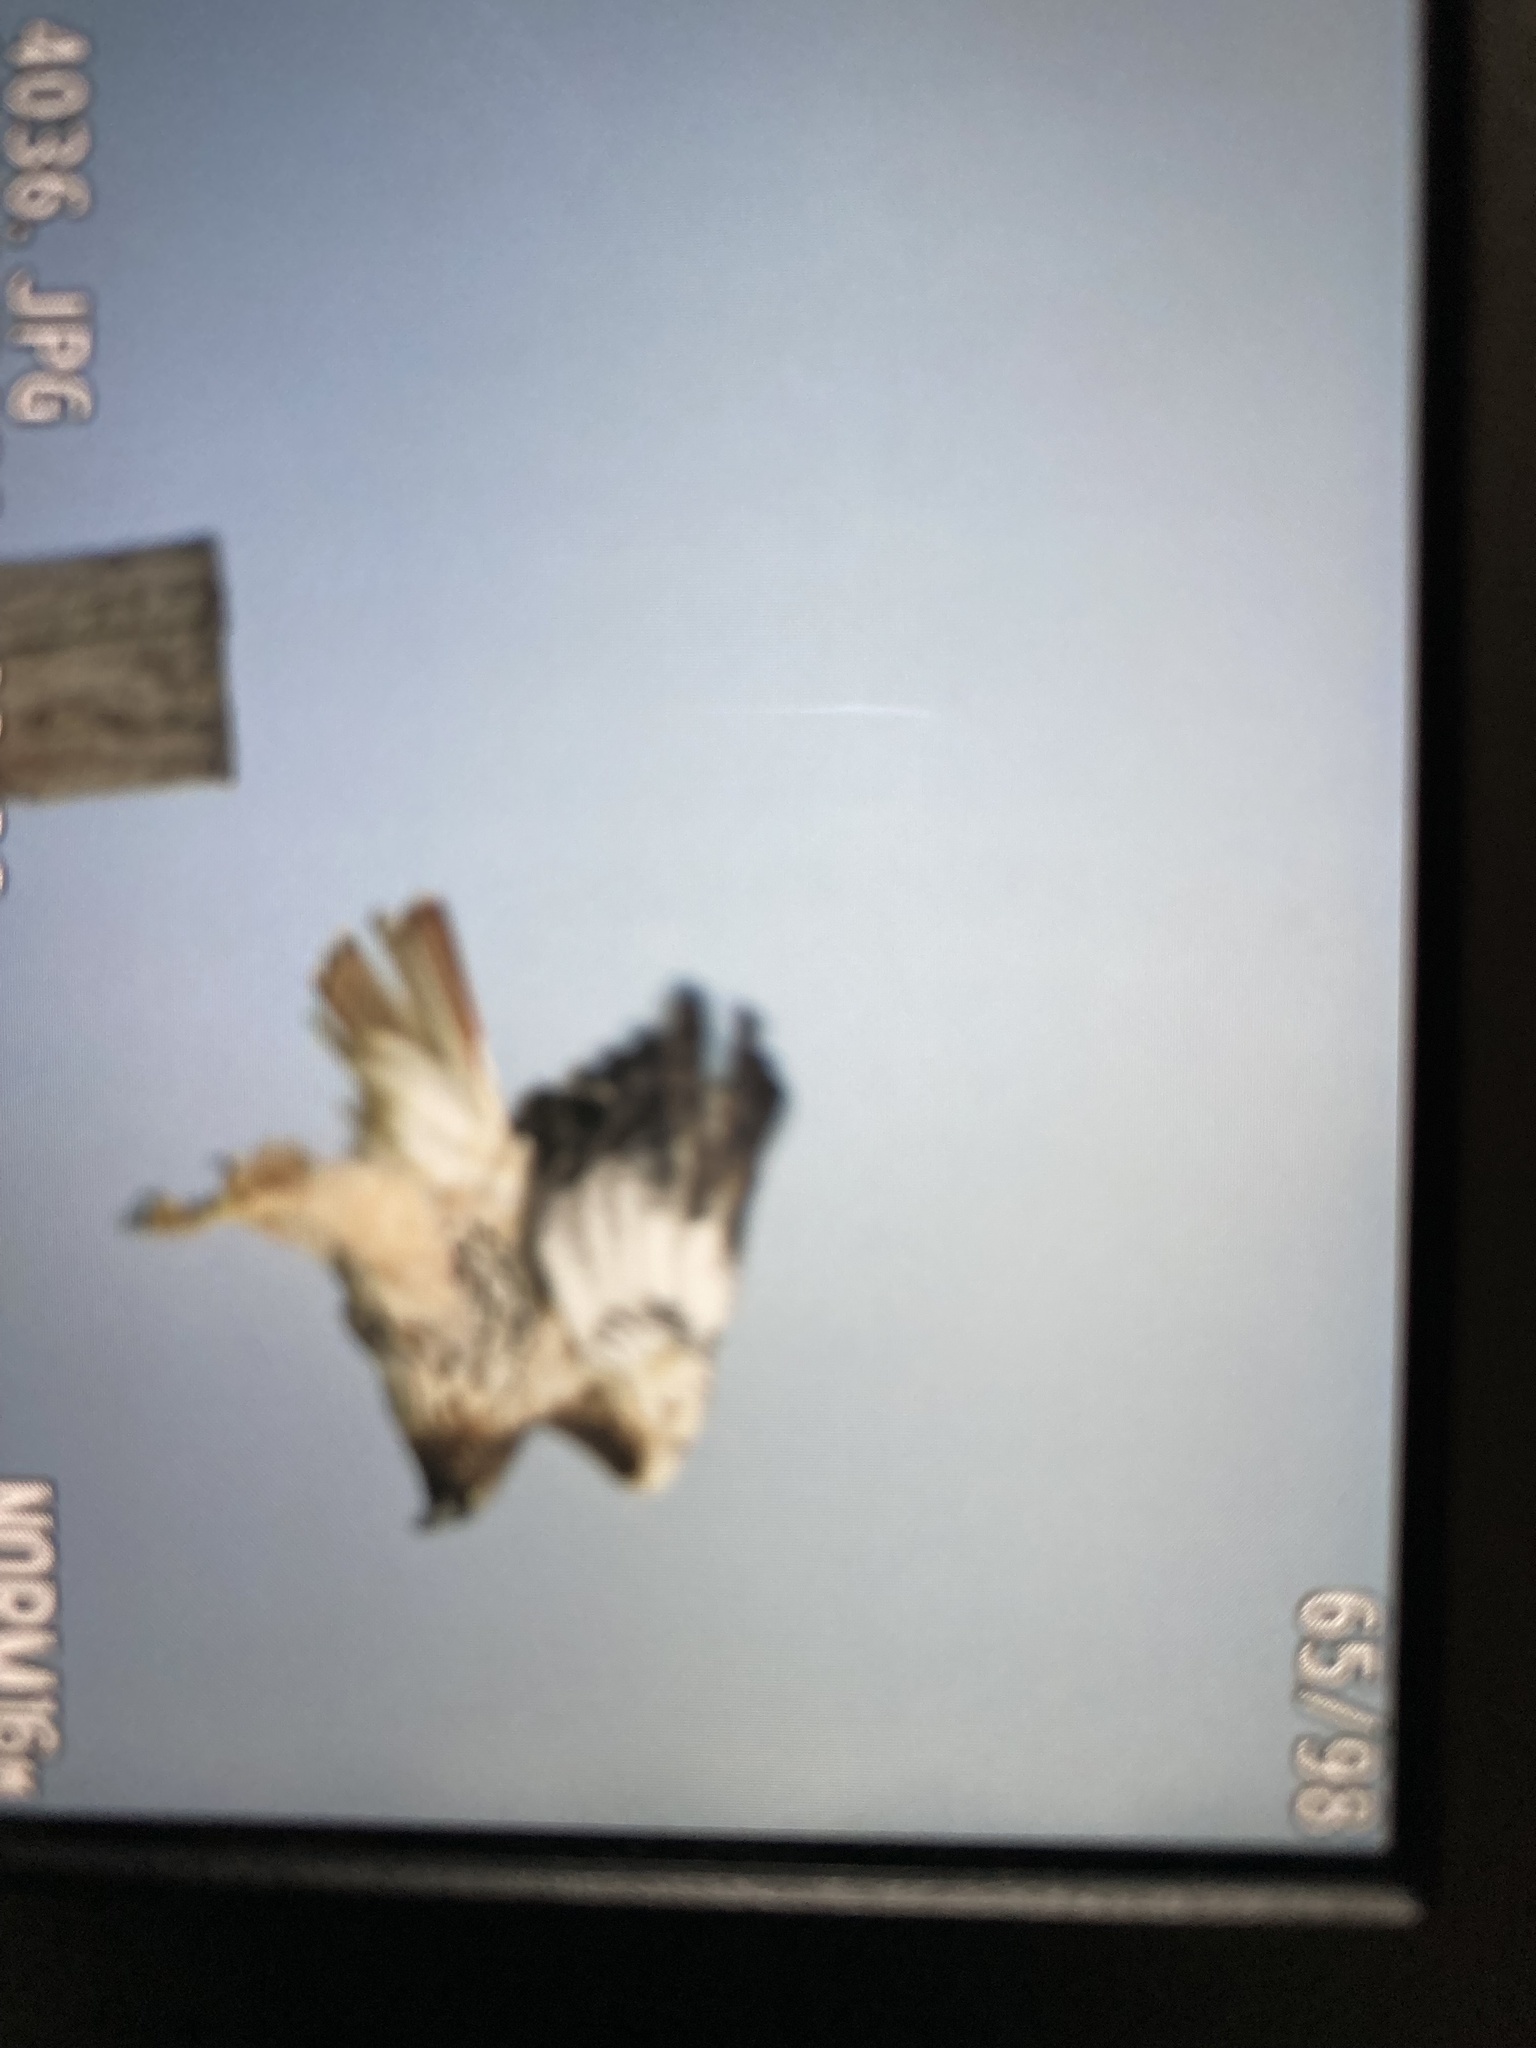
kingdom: Animalia
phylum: Chordata
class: Aves
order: Accipitriformes
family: Accipitridae
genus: Buteo
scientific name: Buteo jamaicensis
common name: Red-tailed hawk
